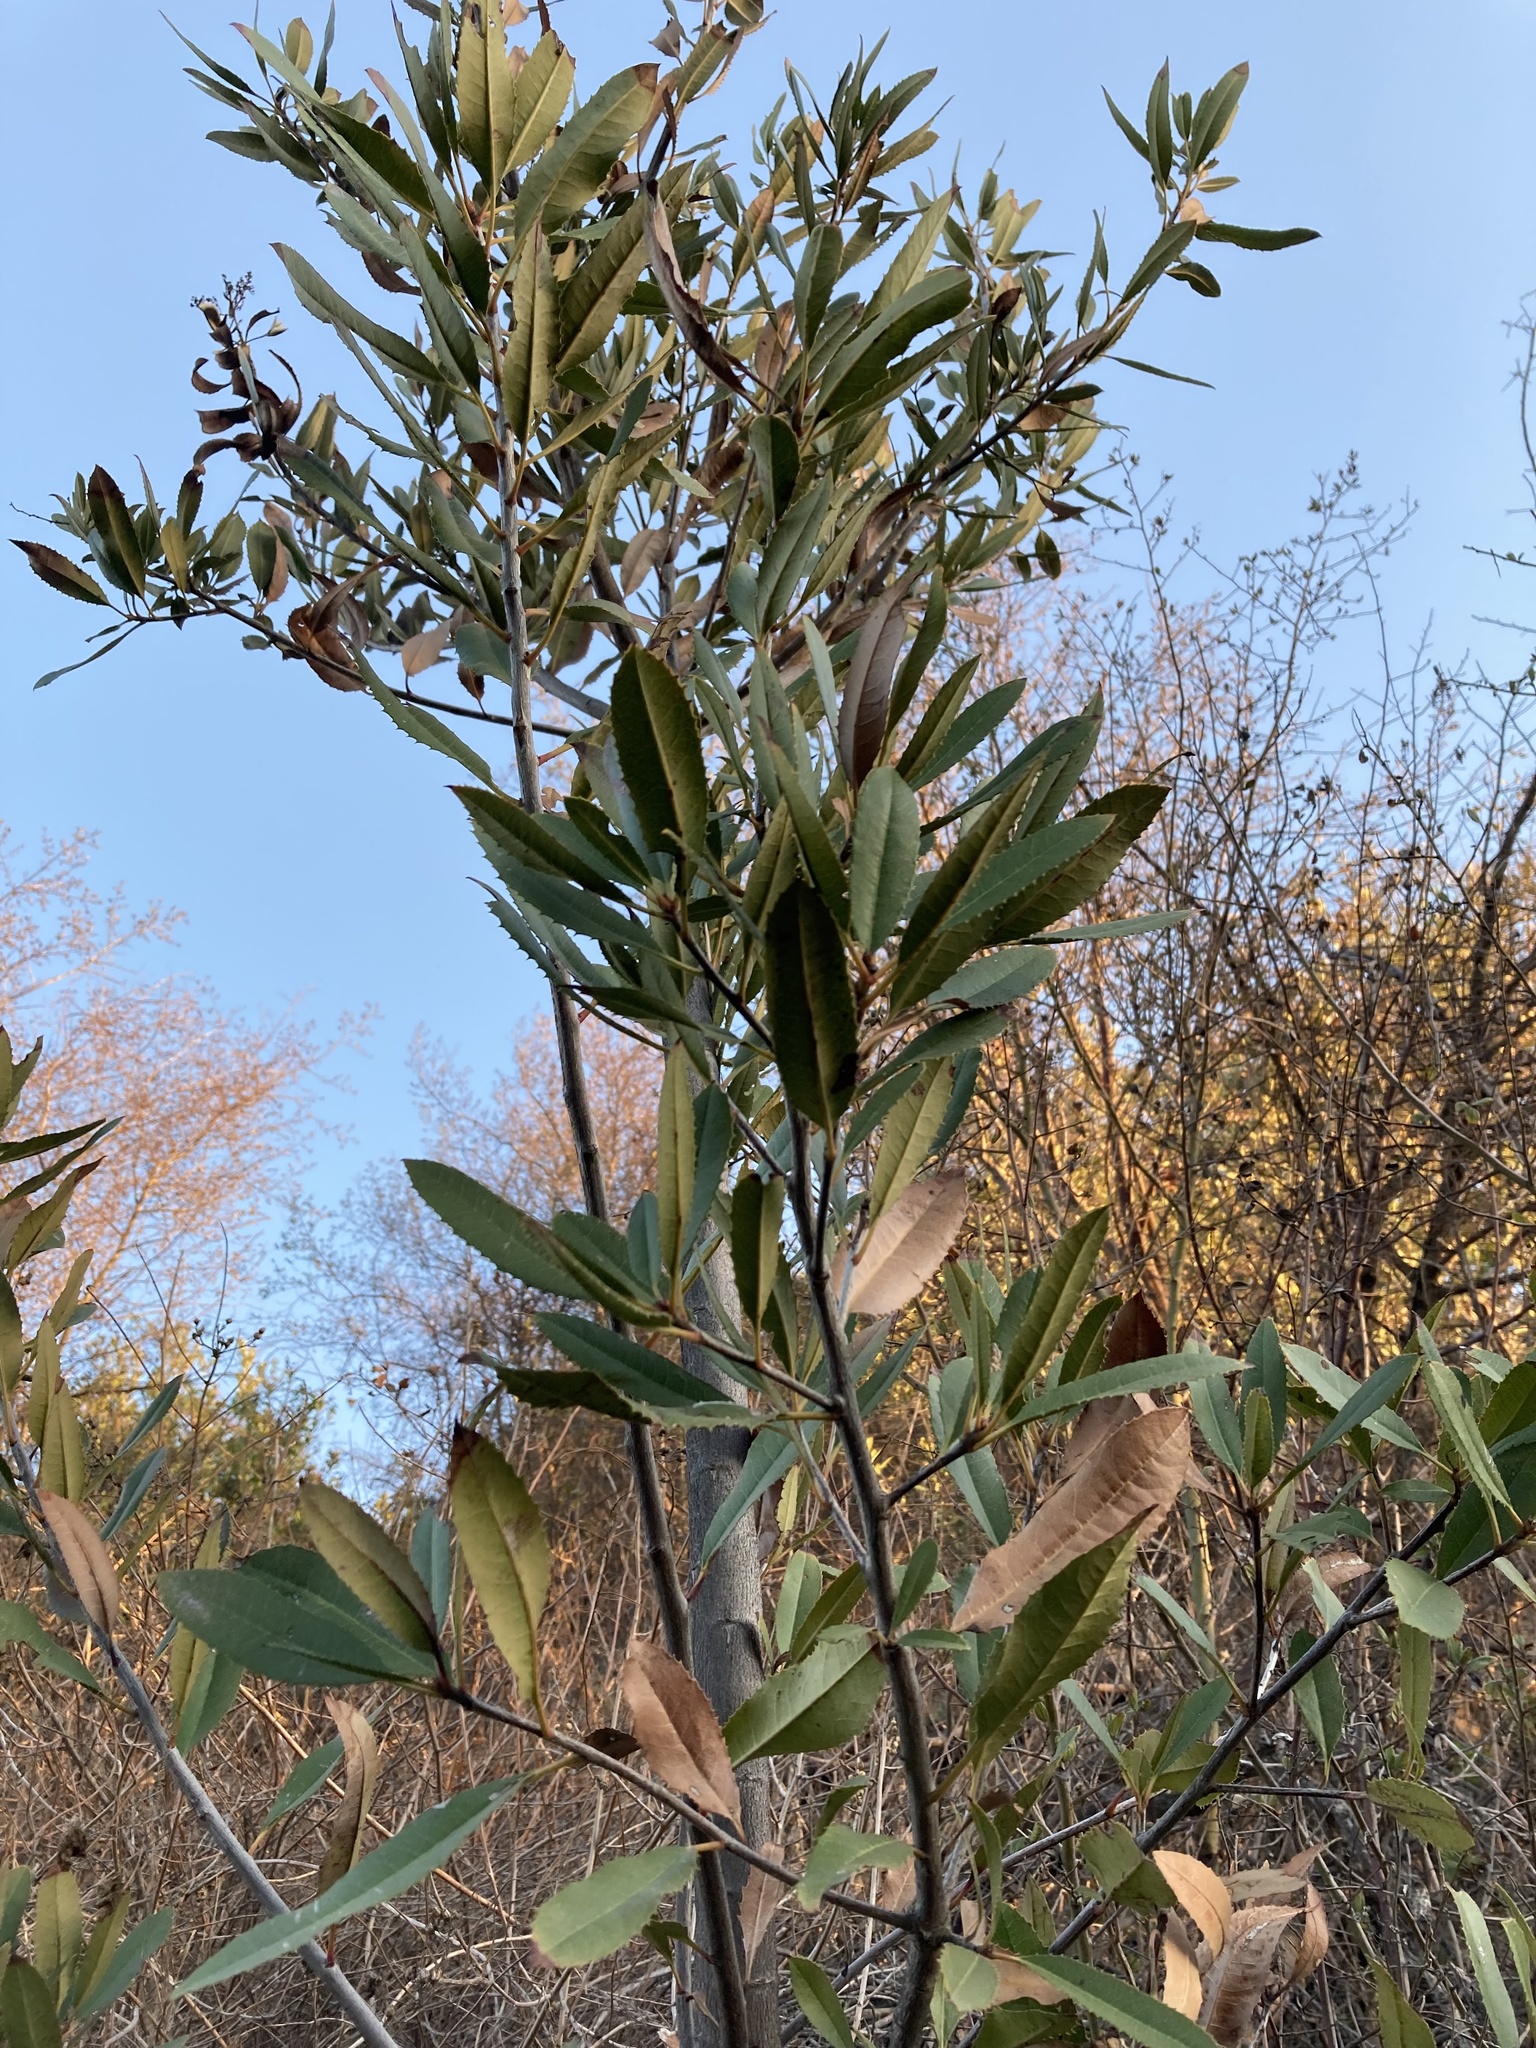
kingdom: Plantae
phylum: Tracheophyta
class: Magnoliopsida
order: Rosales
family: Rosaceae
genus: Heteromeles
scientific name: Heteromeles arbutifolia
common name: California-holly
